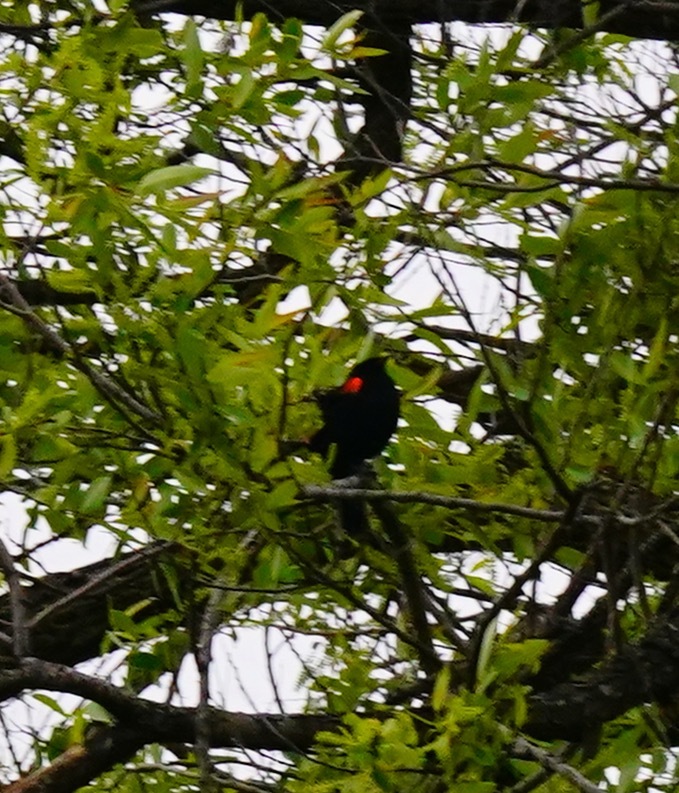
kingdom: Animalia
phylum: Chordata
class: Aves
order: Passeriformes
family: Icteridae
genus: Agelaius
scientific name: Agelaius phoeniceus
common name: Red-winged blackbird
